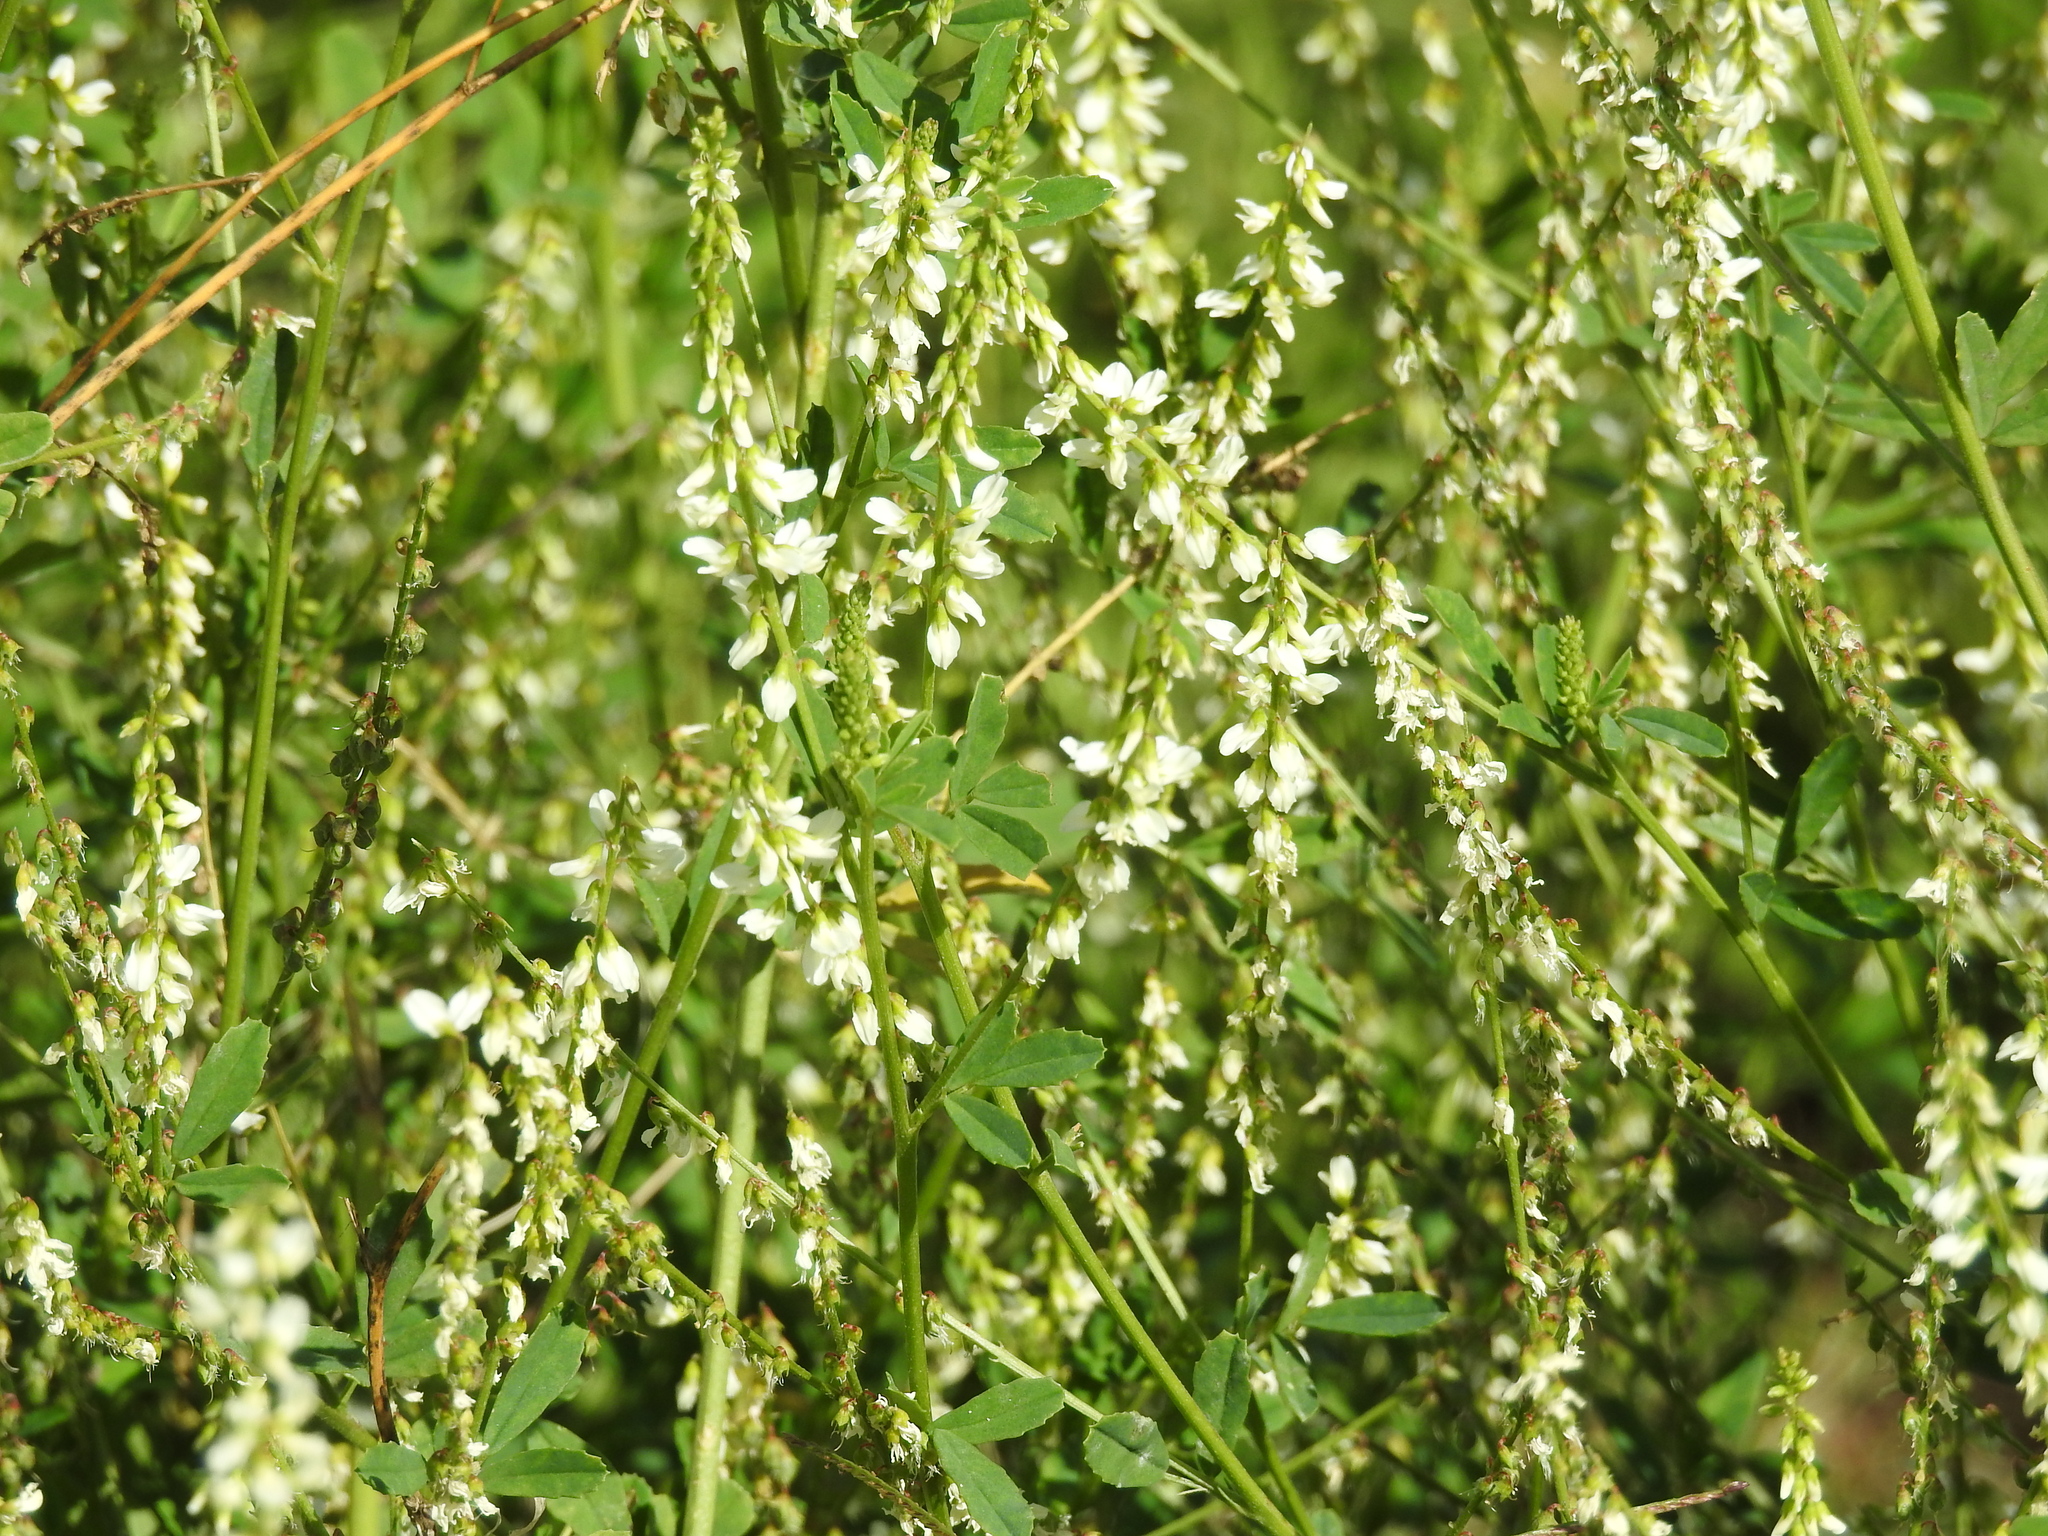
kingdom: Plantae
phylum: Tracheophyta
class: Magnoliopsida
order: Fabales
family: Fabaceae
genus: Melilotus
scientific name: Melilotus albus
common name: White melilot
